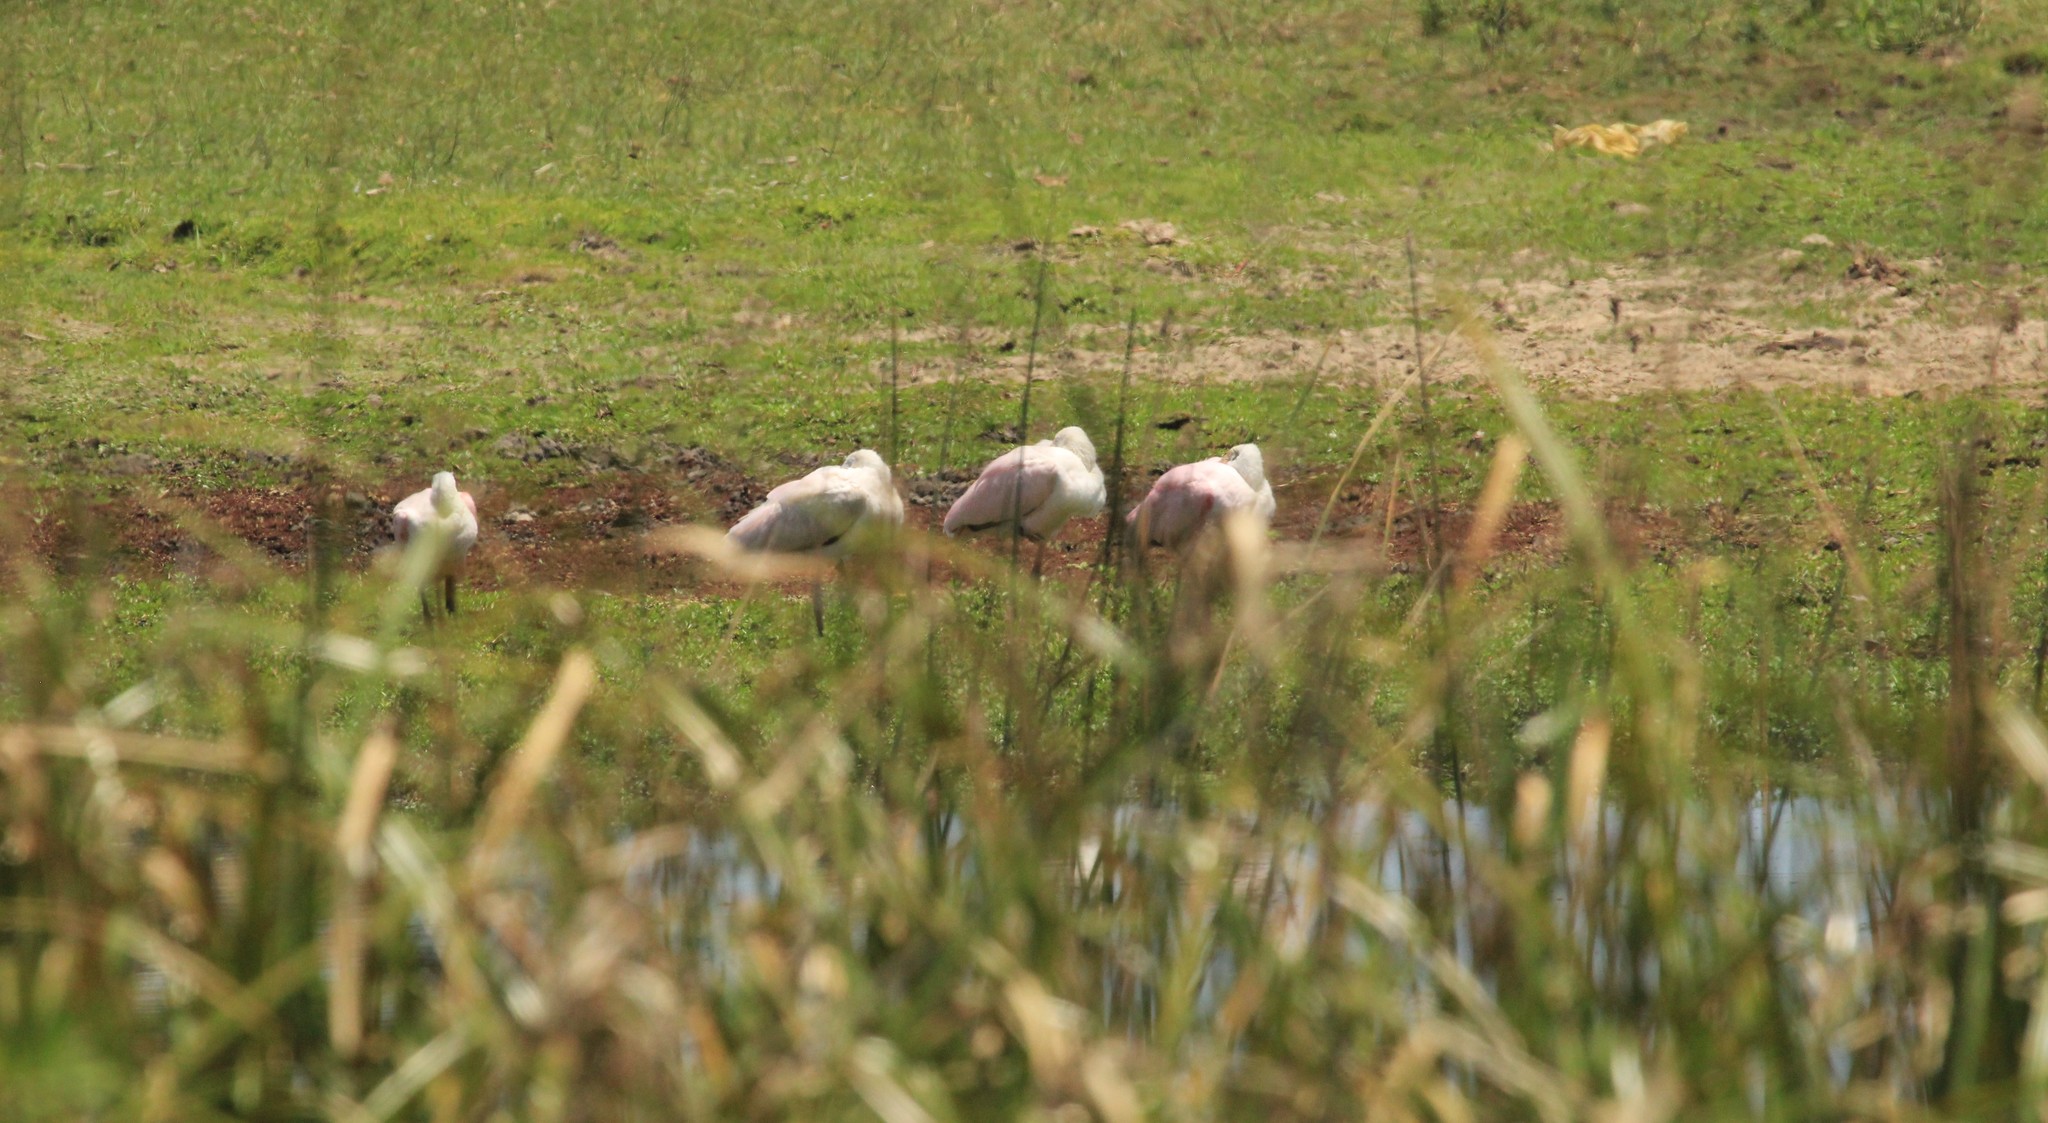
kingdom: Animalia
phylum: Chordata
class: Aves
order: Pelecaniformes
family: Threskiornithidae
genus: Platalea
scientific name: Platalea ajaja
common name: Roseate spoonbill
